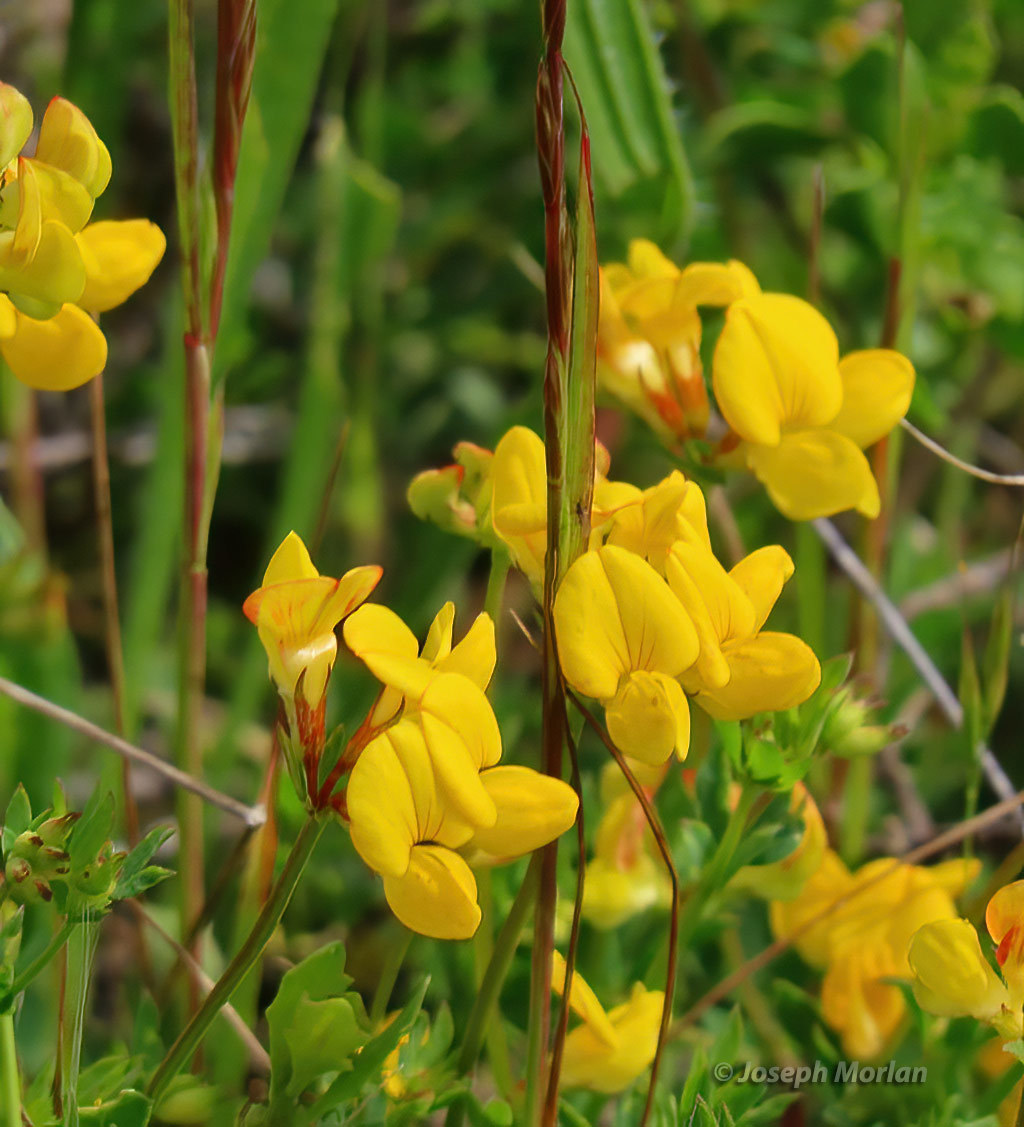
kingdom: Plantae
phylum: Tracheophyta
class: Magnoliopsida
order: Fabales
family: Fabaceae
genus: Lotus
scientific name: Lotus corniculatus
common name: Common bird's-foot-trefoil
